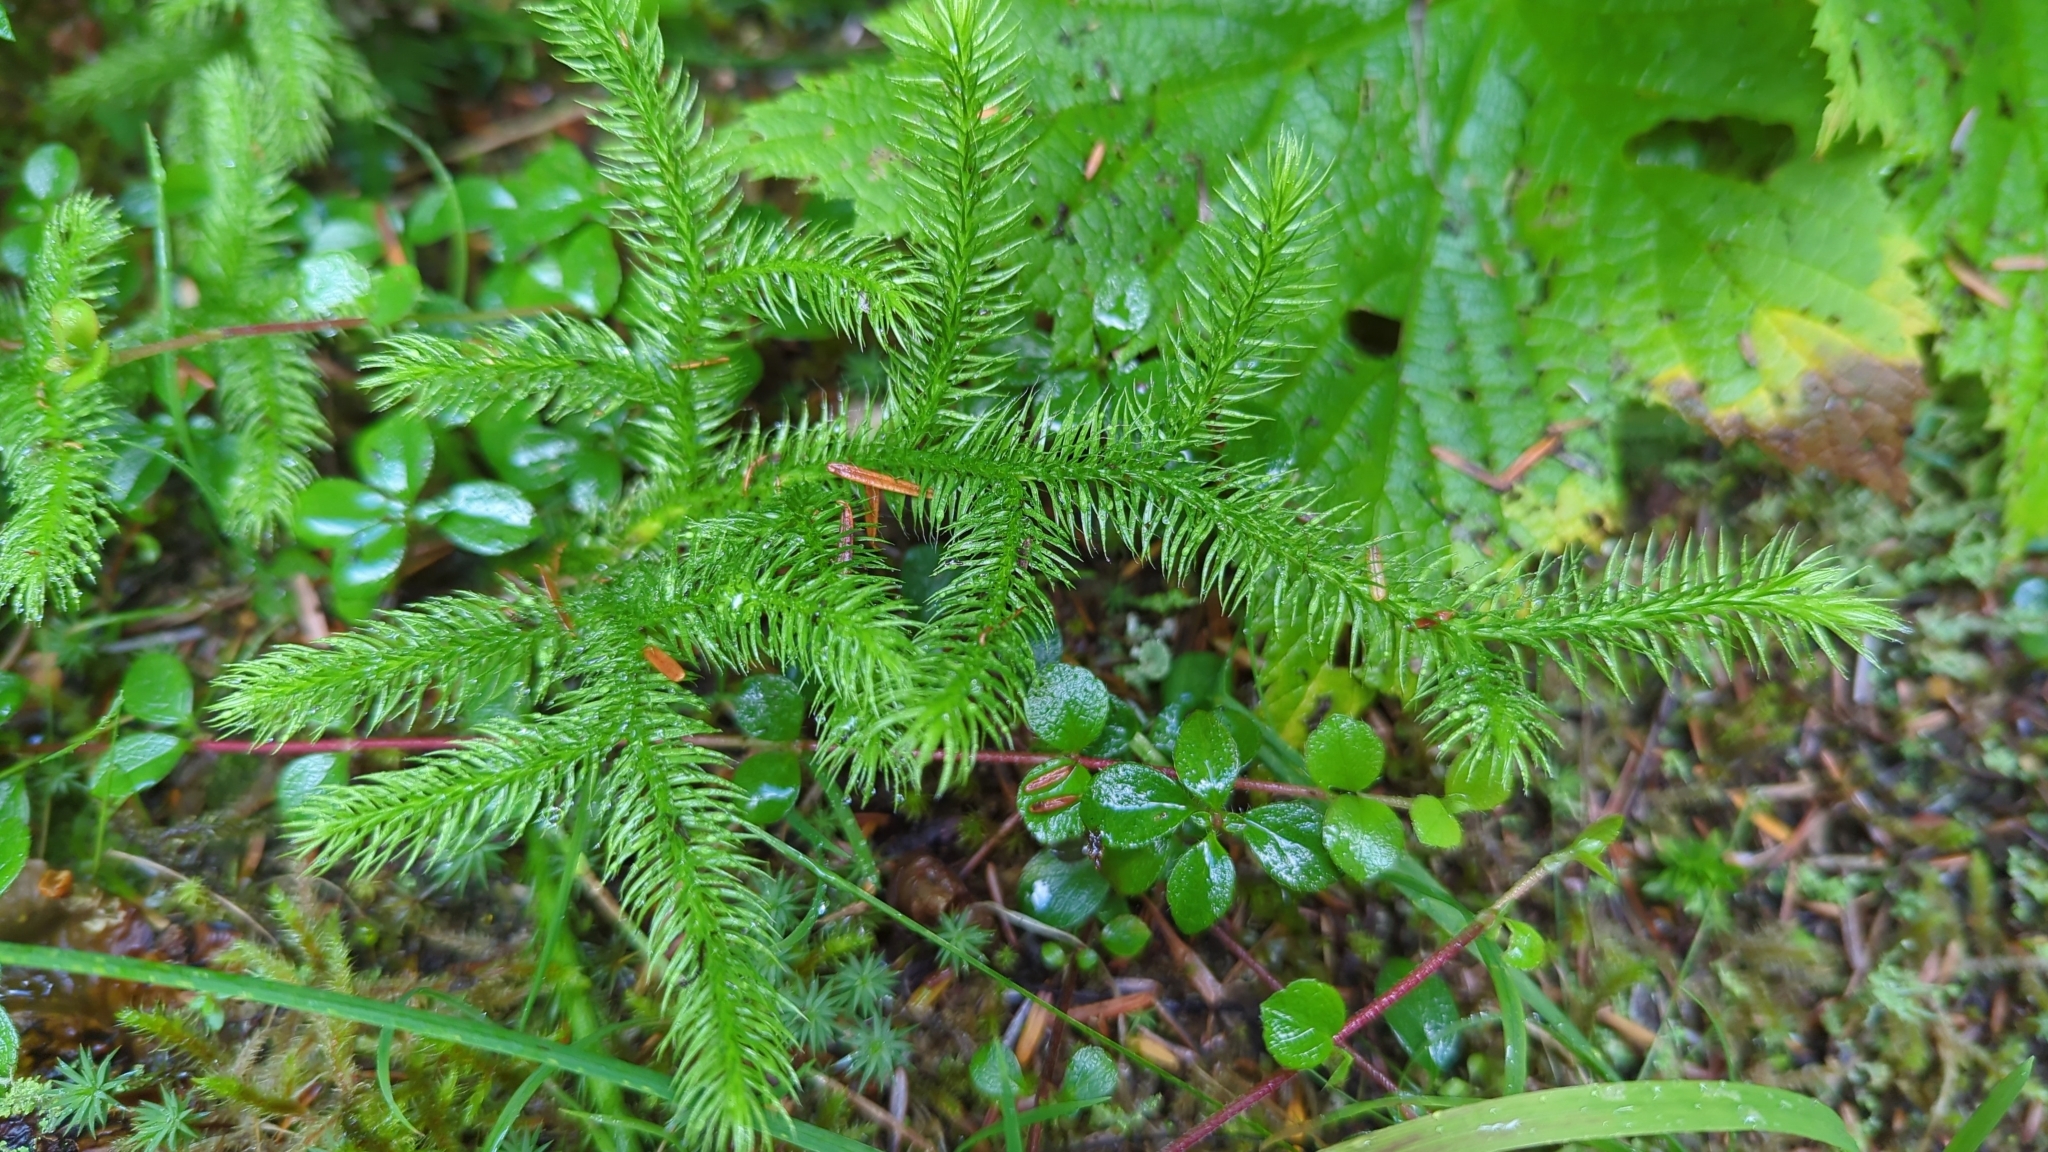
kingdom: Plantae
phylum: Tracheophyta
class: Lycopodiopsida
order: Lycopodiales
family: Lycopodiaceae
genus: Lycopodium
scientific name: Lycopodium clavatum
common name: Stag's-horn clubmoss
